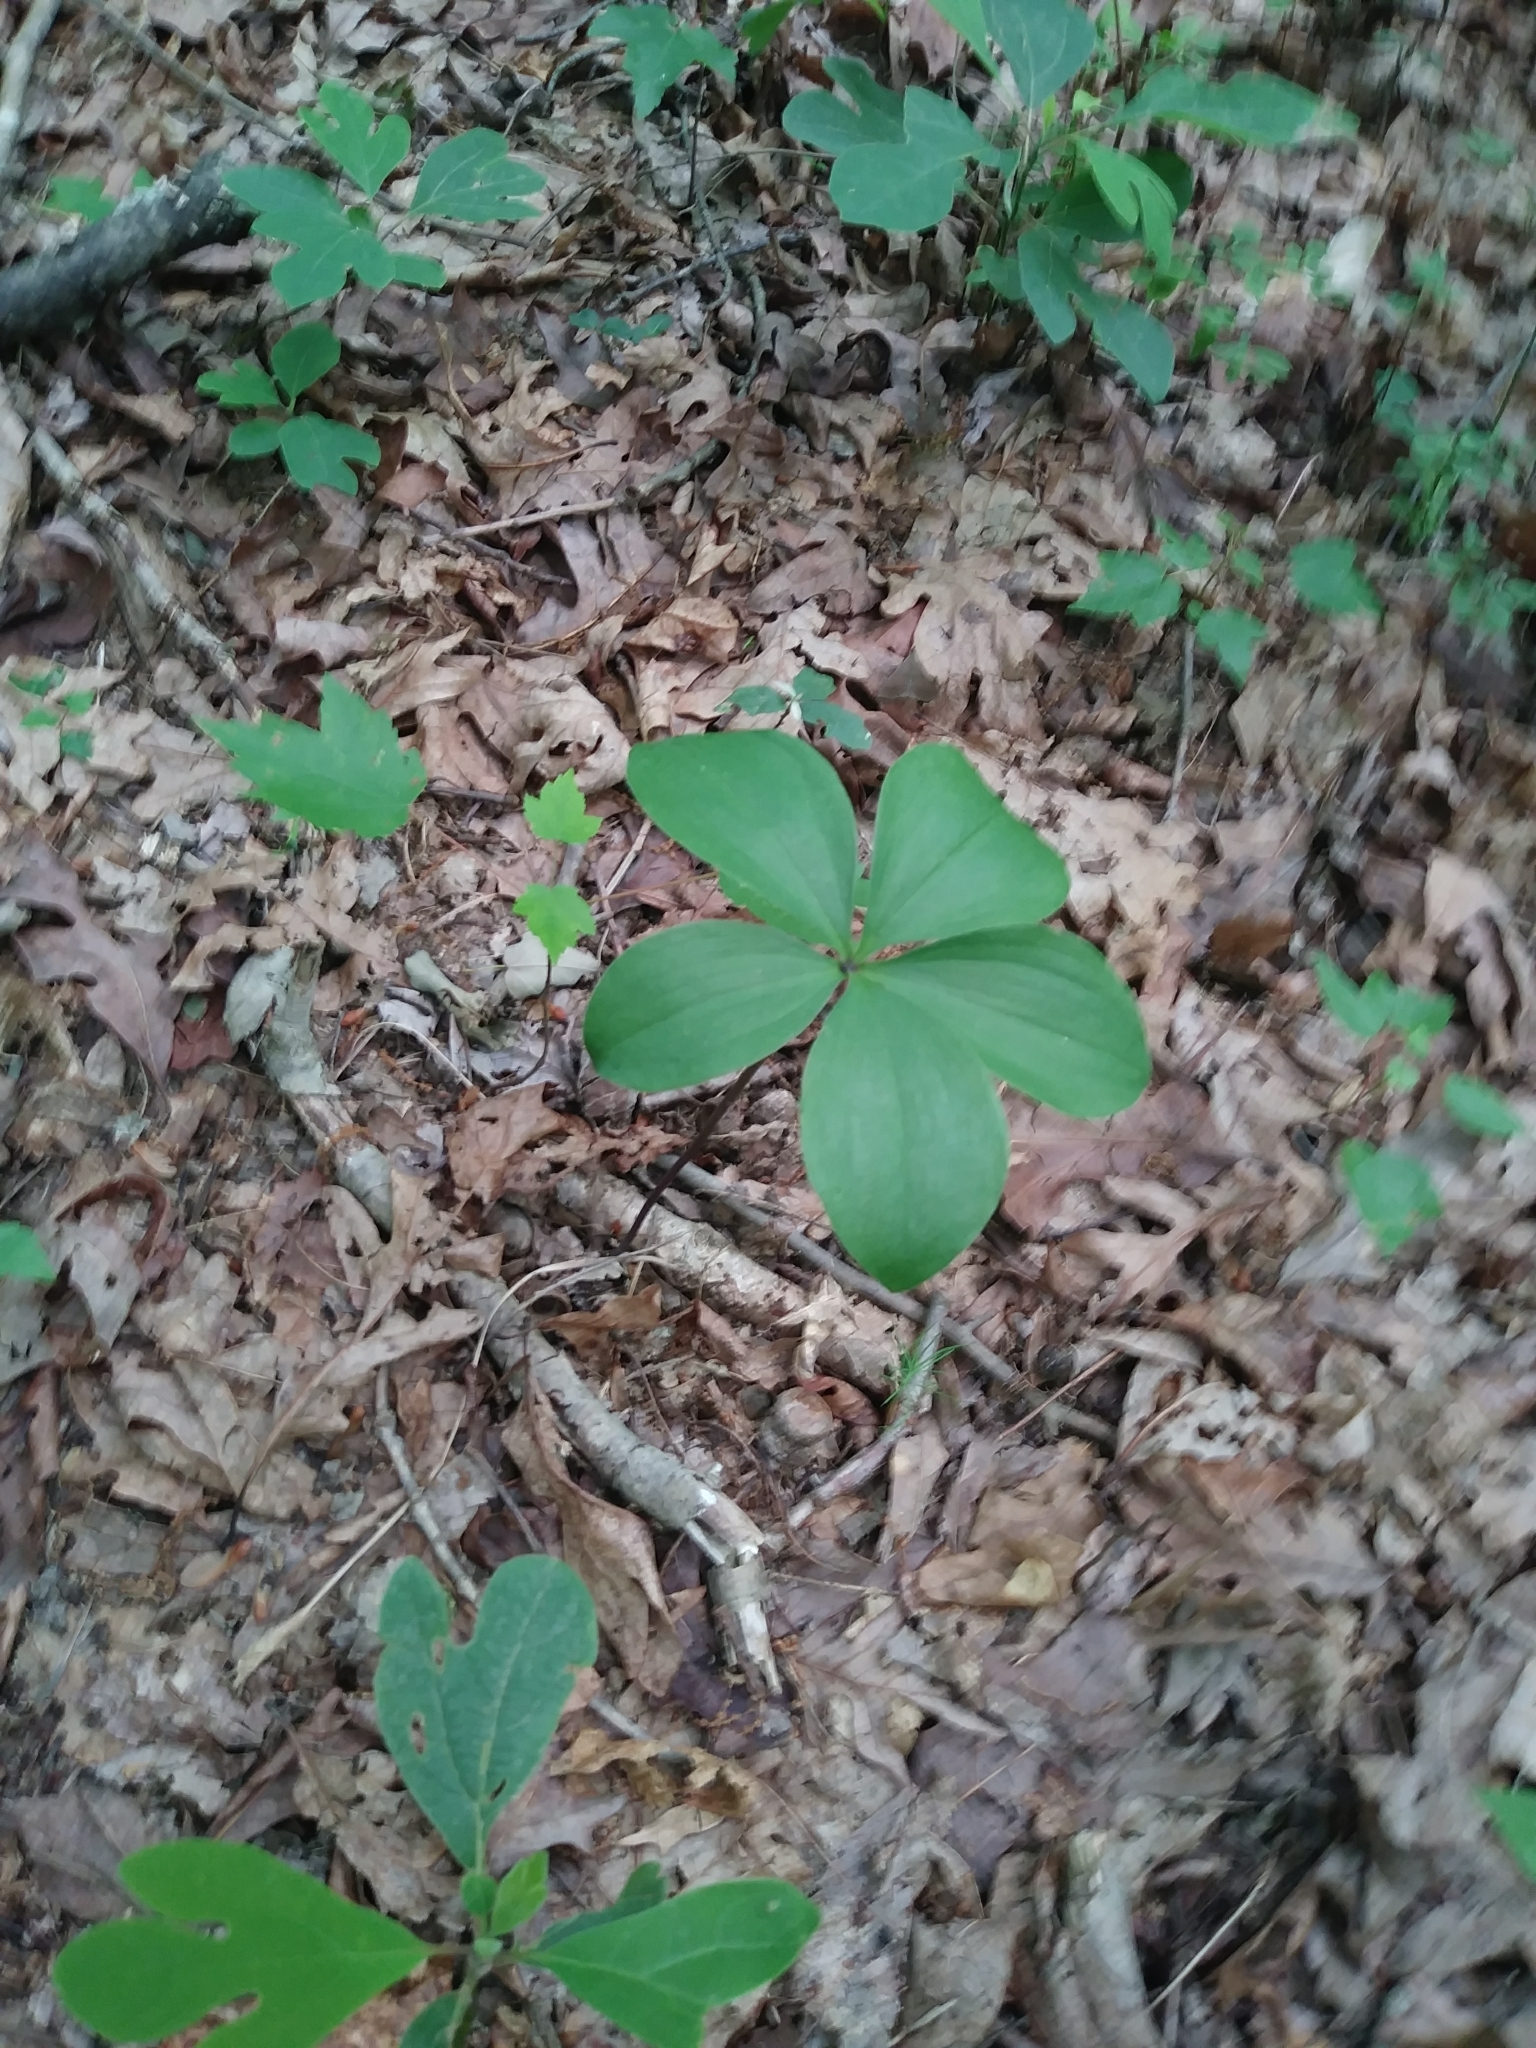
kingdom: Plantae
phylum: Tracheophyta
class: Liliopsida
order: Asparagales
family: Orchidaceae
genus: Isotria
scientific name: Isotria verticillata
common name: Large whorled pogonia
